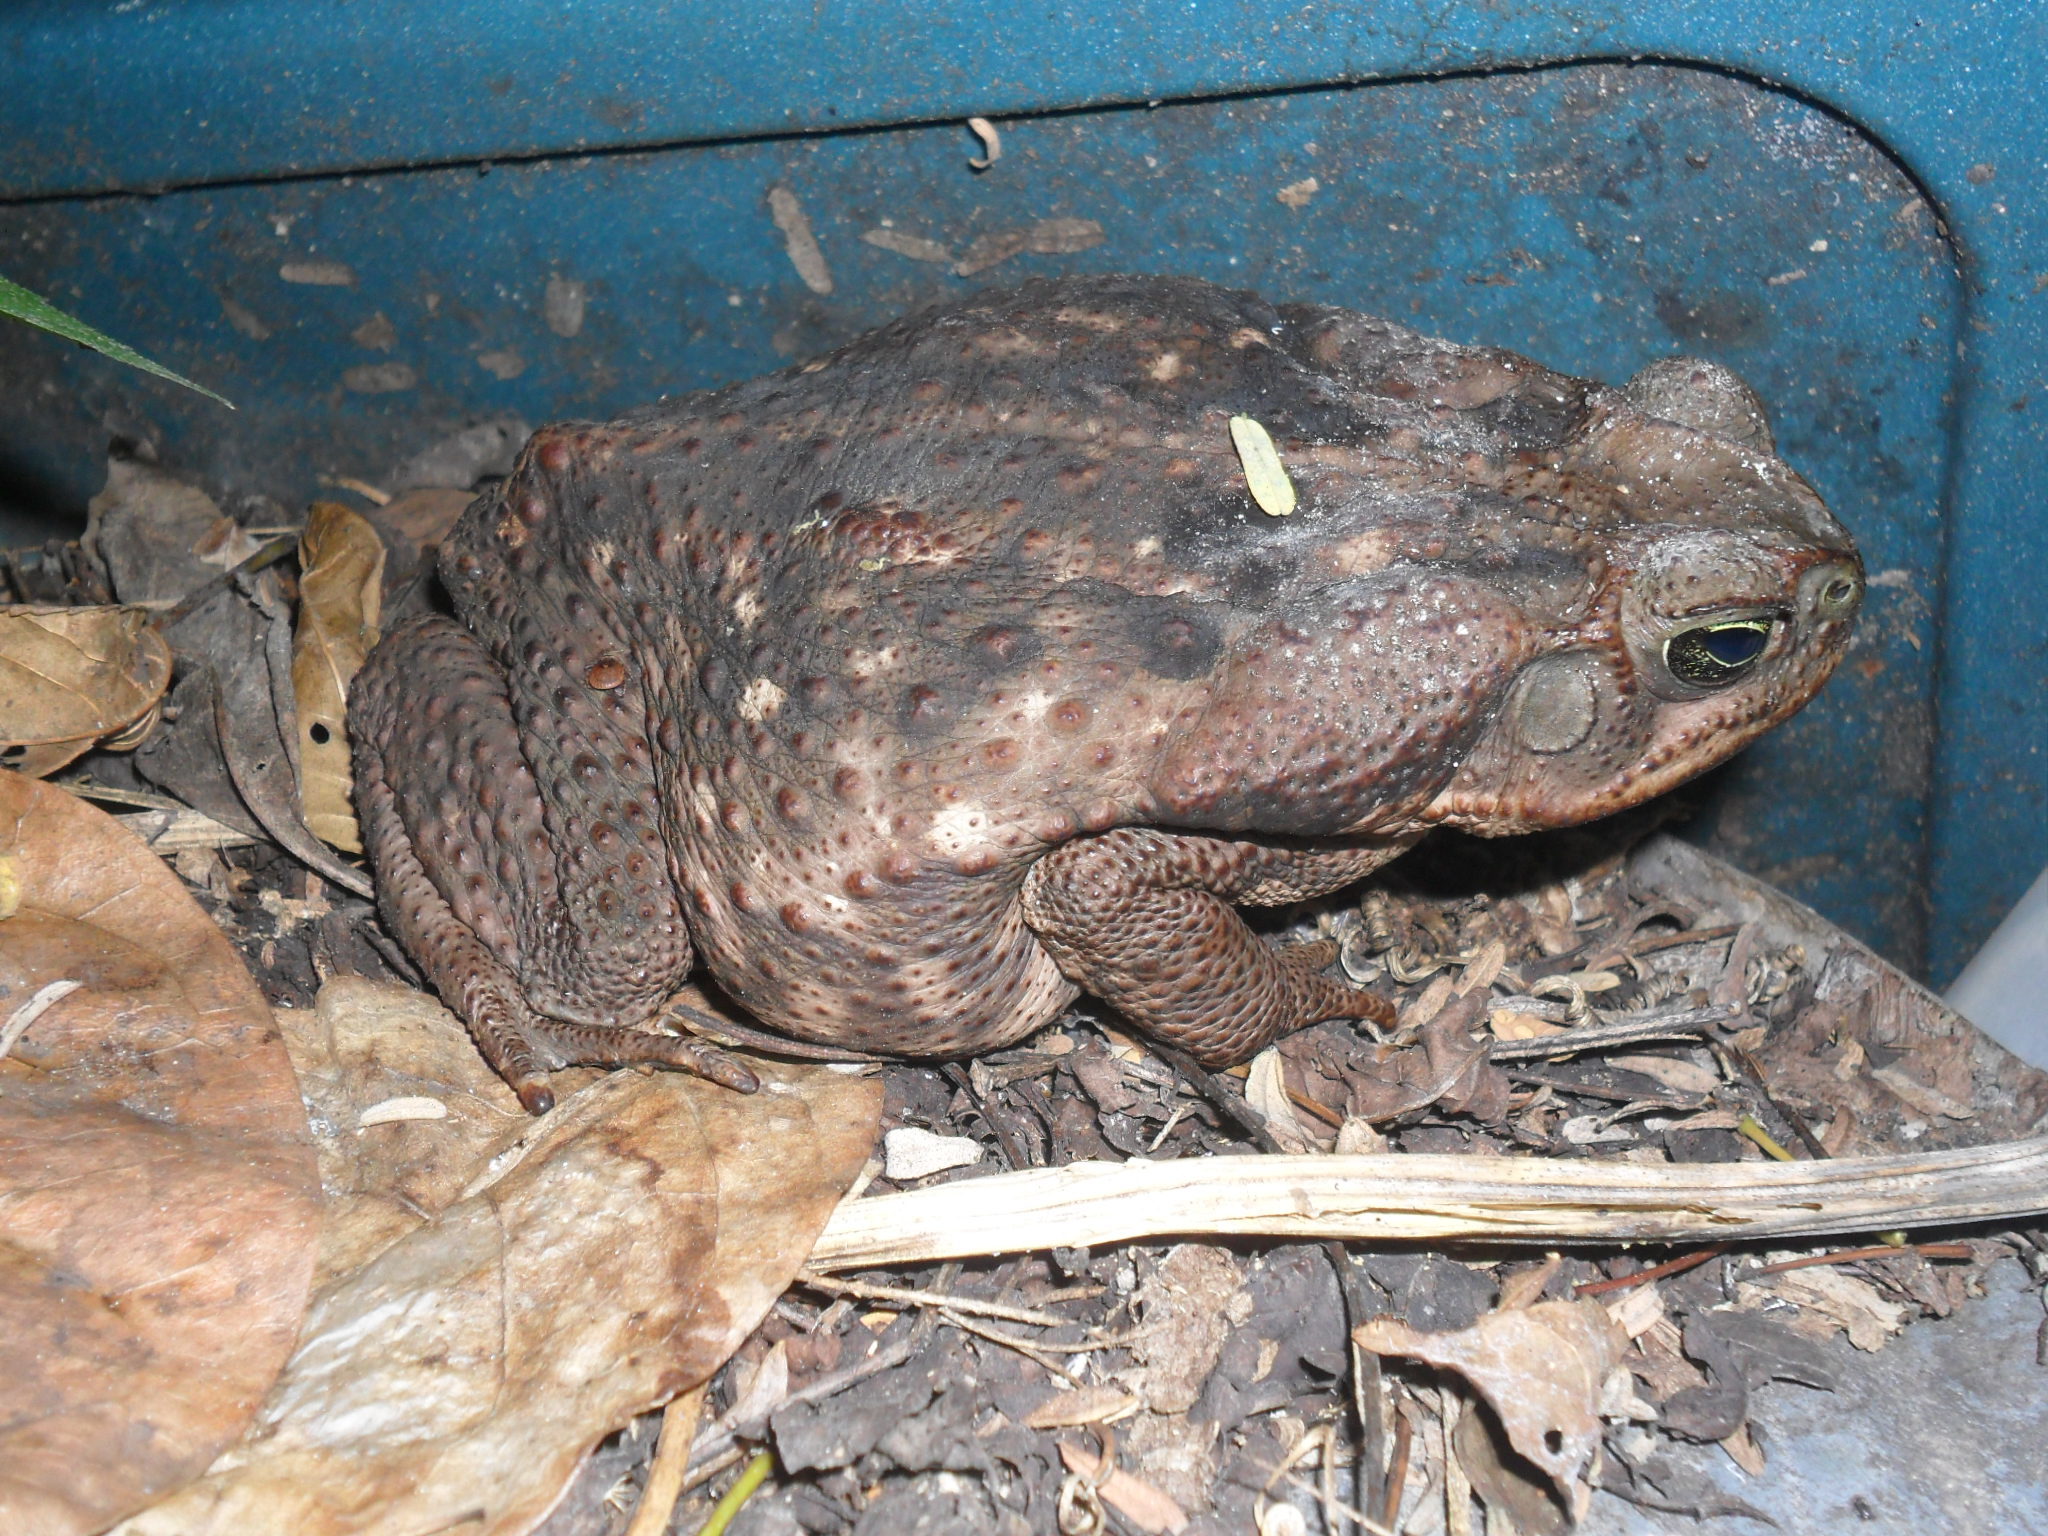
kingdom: Animalia
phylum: Chordata
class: Amphibia
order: Anura
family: Bufonidae
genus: Rhinella
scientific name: Rhinella horribilis
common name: Mesoamerican cane toad
